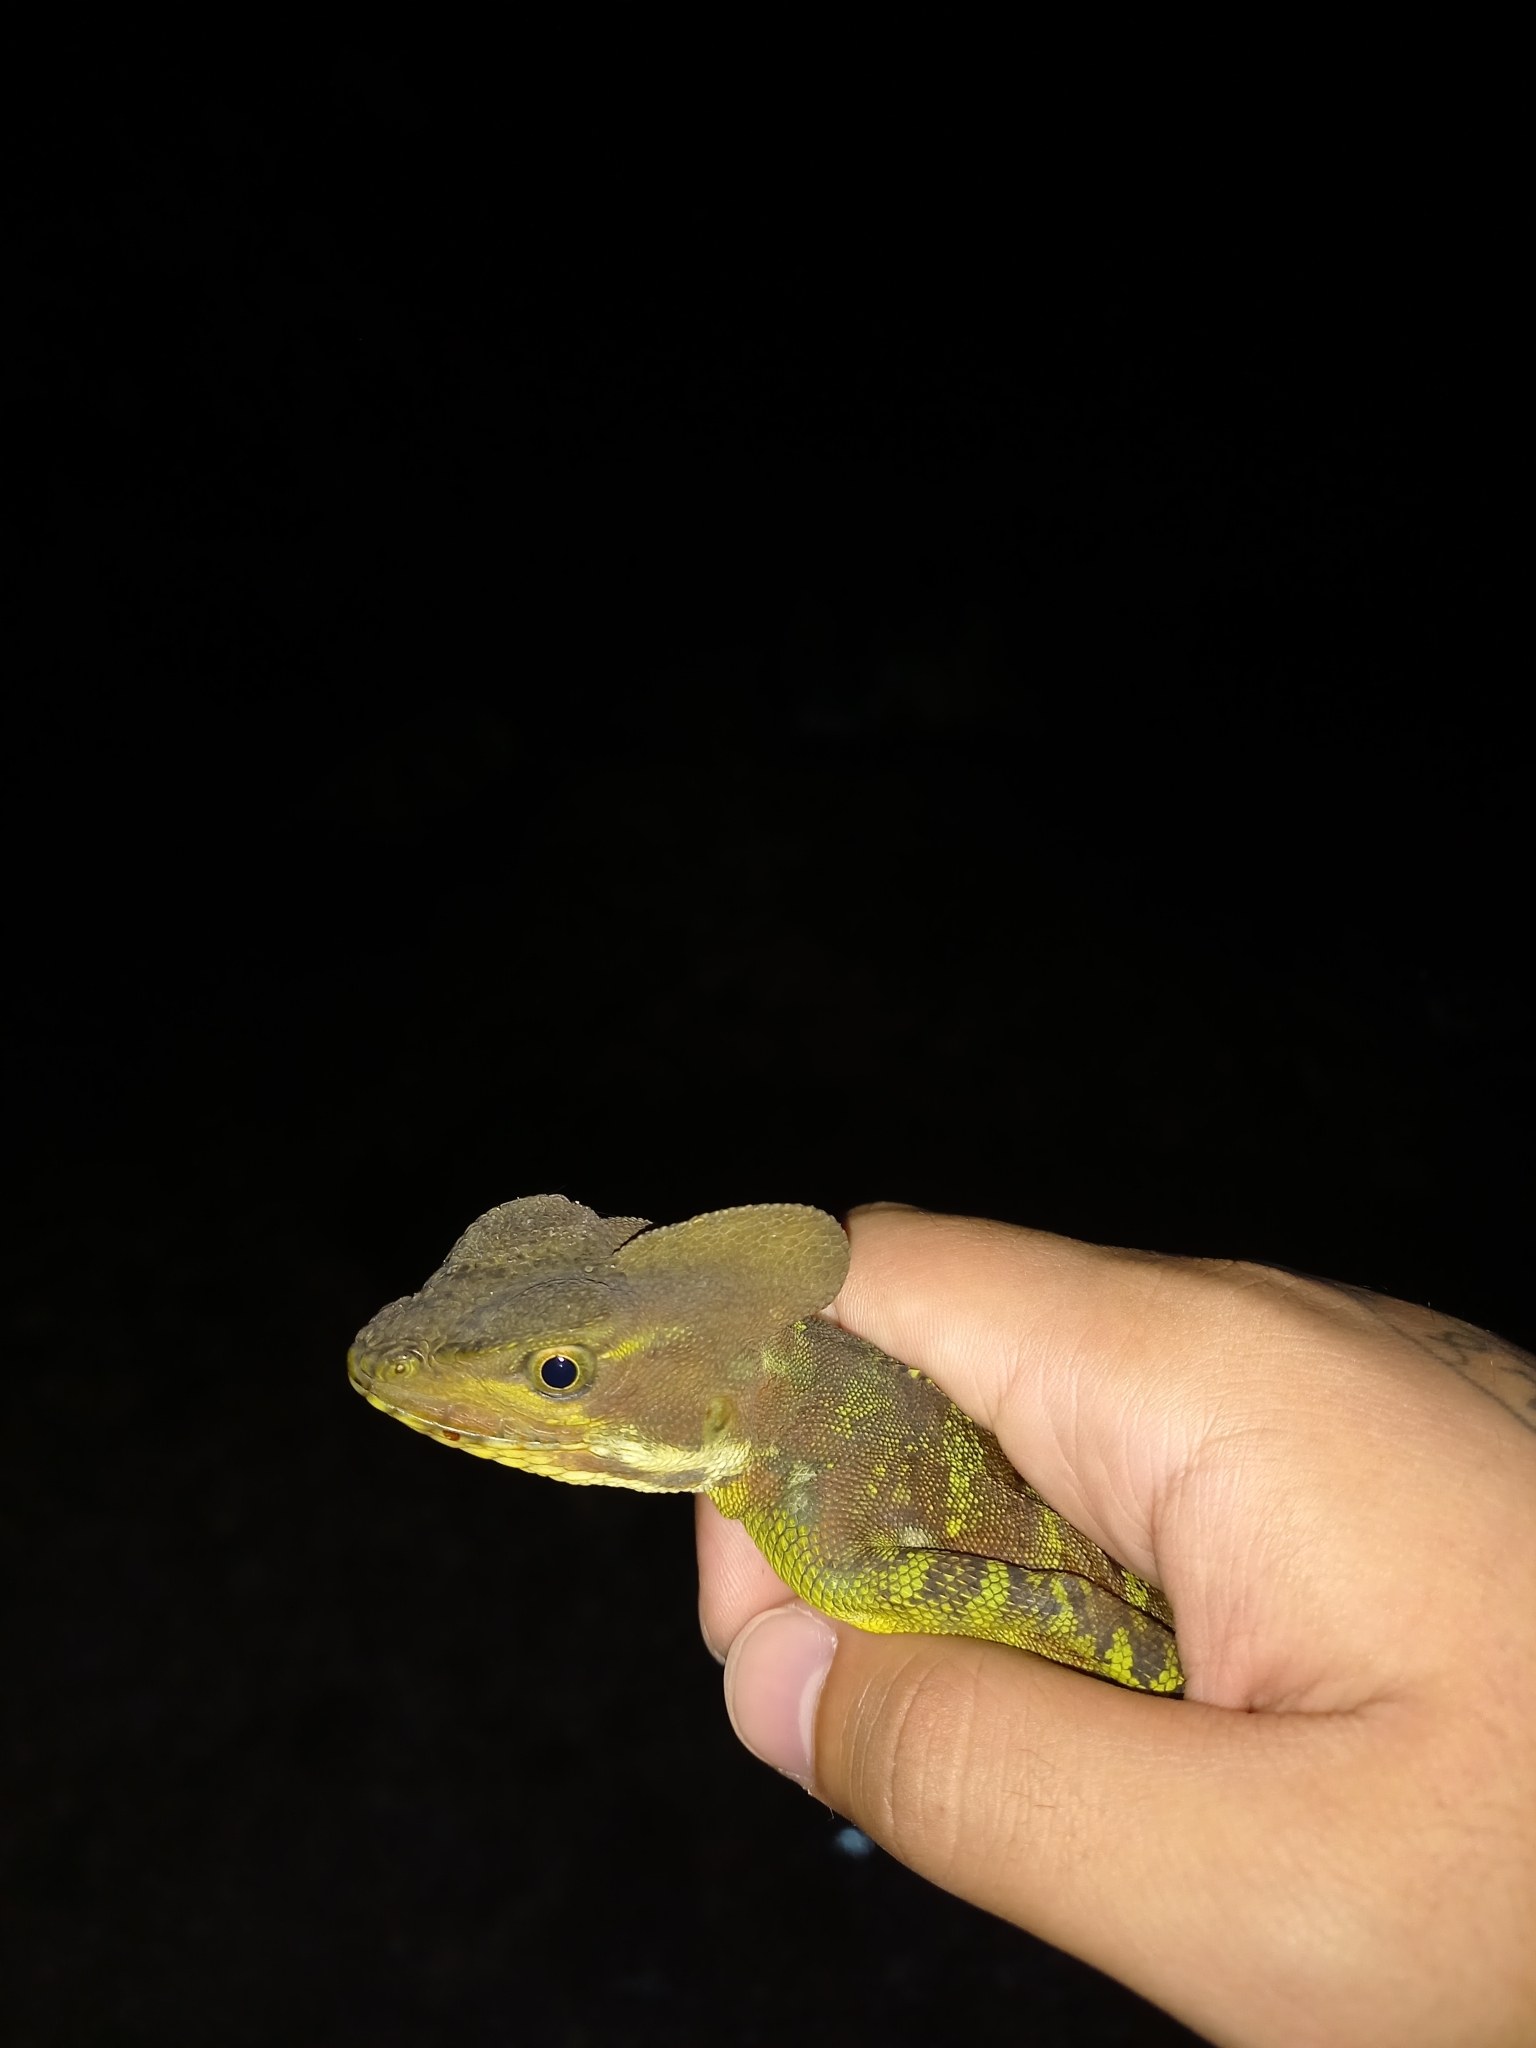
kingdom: Animalia
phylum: Chordata
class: Squamata
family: Corytophanidae
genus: Basiliscus
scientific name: Basiliscus galeritus
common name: Western basilisk
